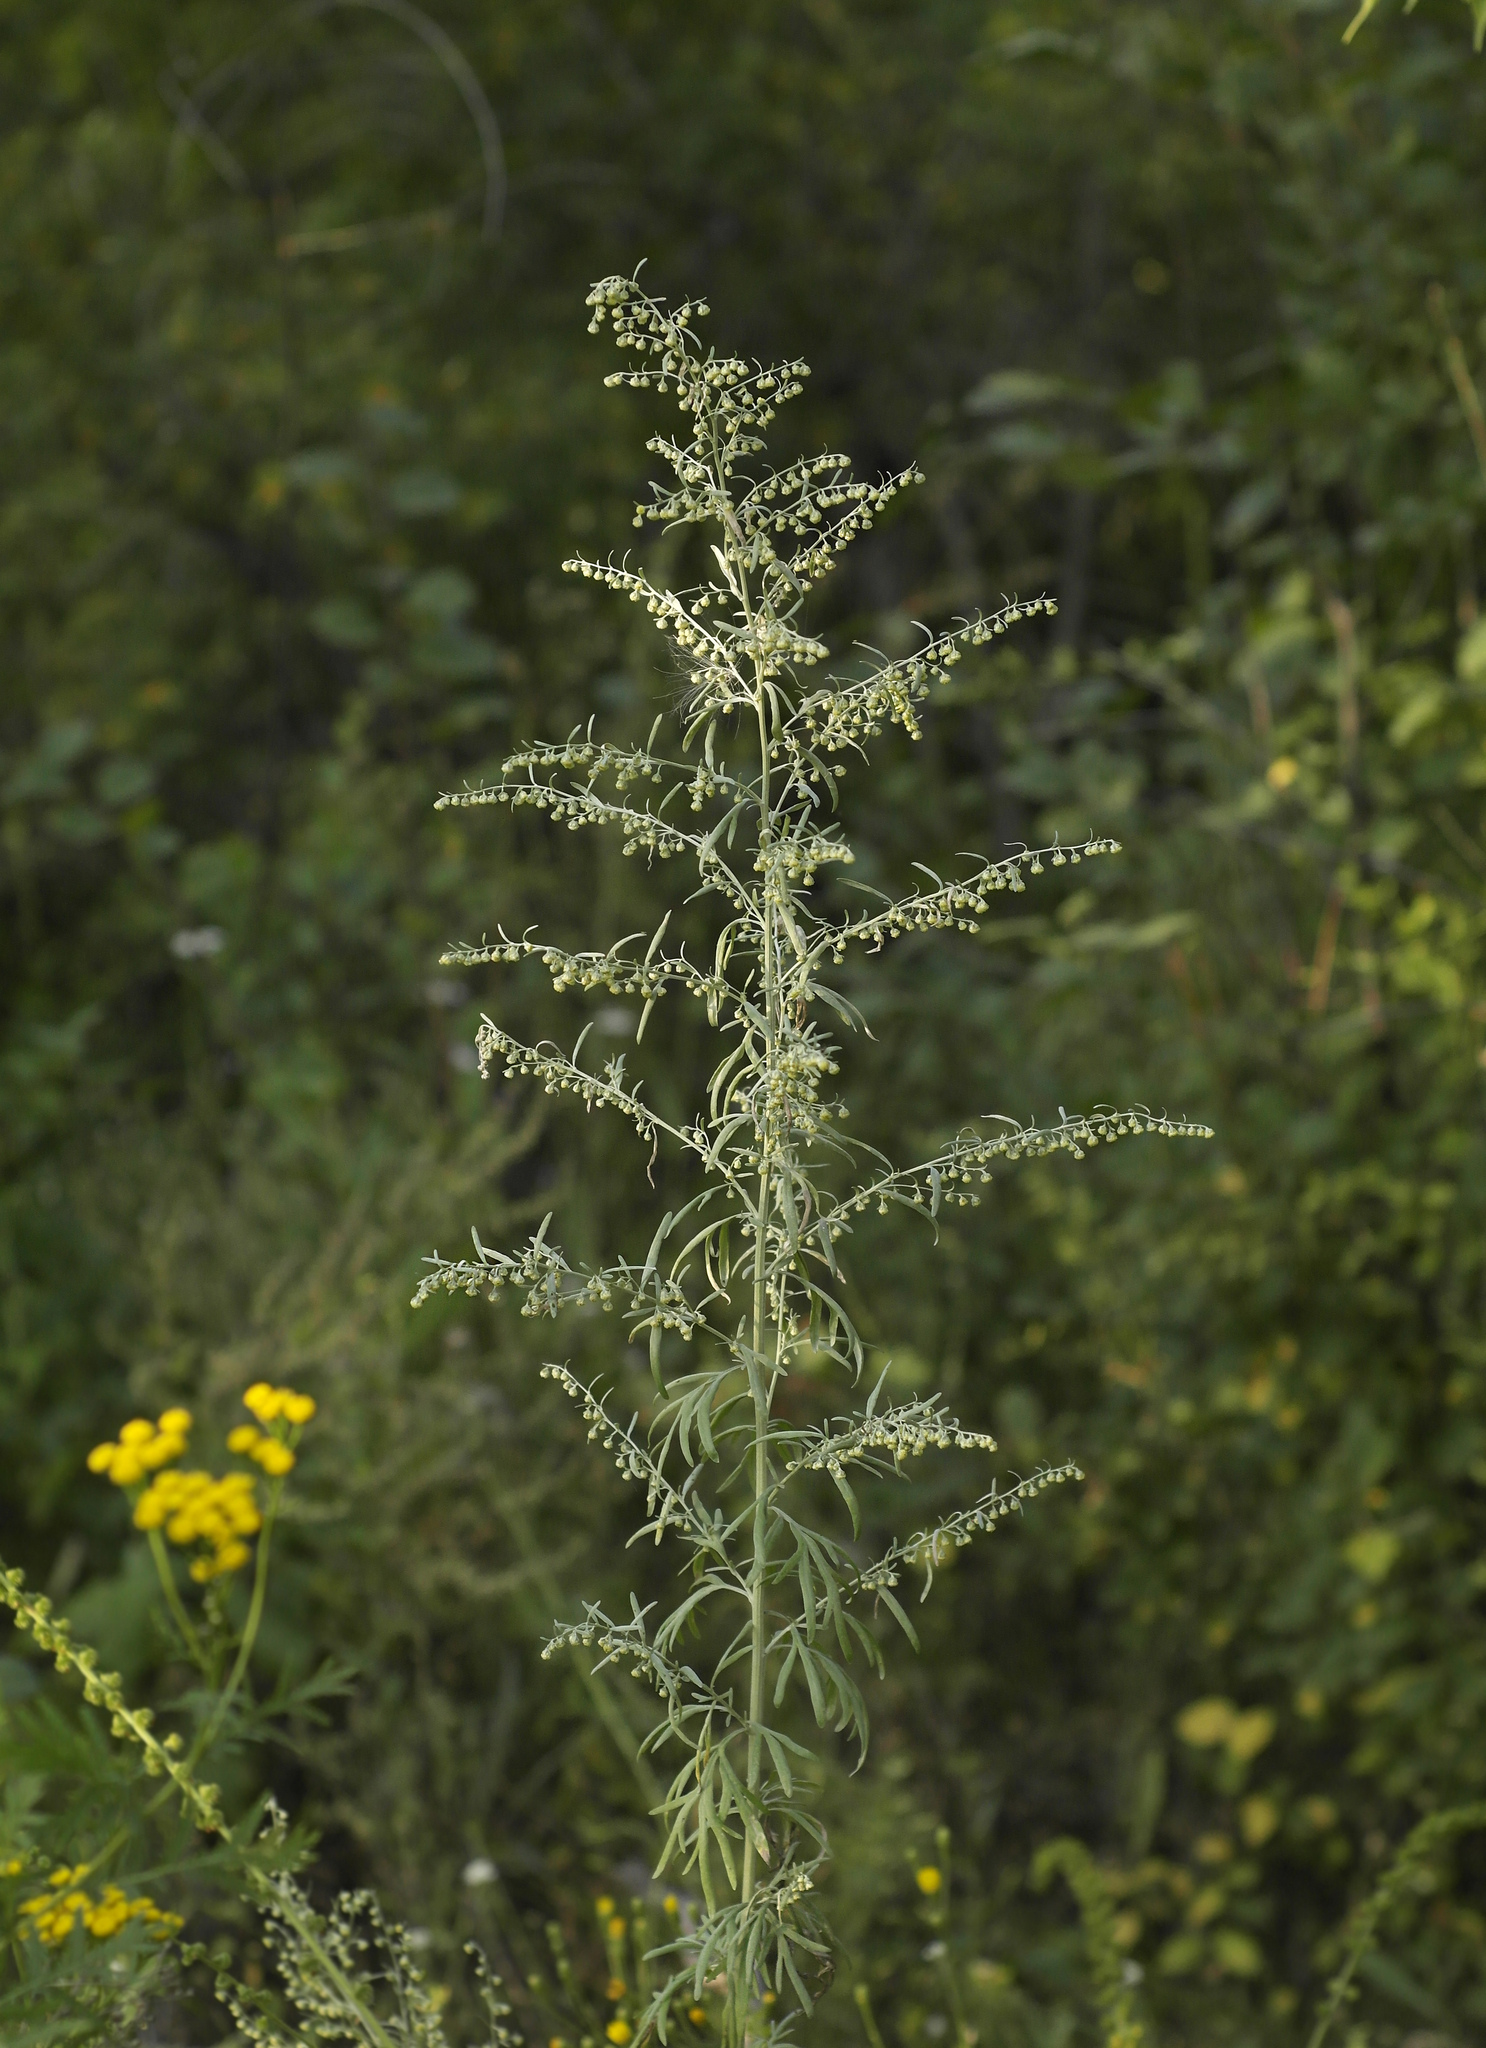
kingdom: Plantae
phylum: Tracheophyta
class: Magnoliopsida
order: Asterales
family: Asteraceae
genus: Artemisia
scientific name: Artemisia absinthium
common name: Wormwood
